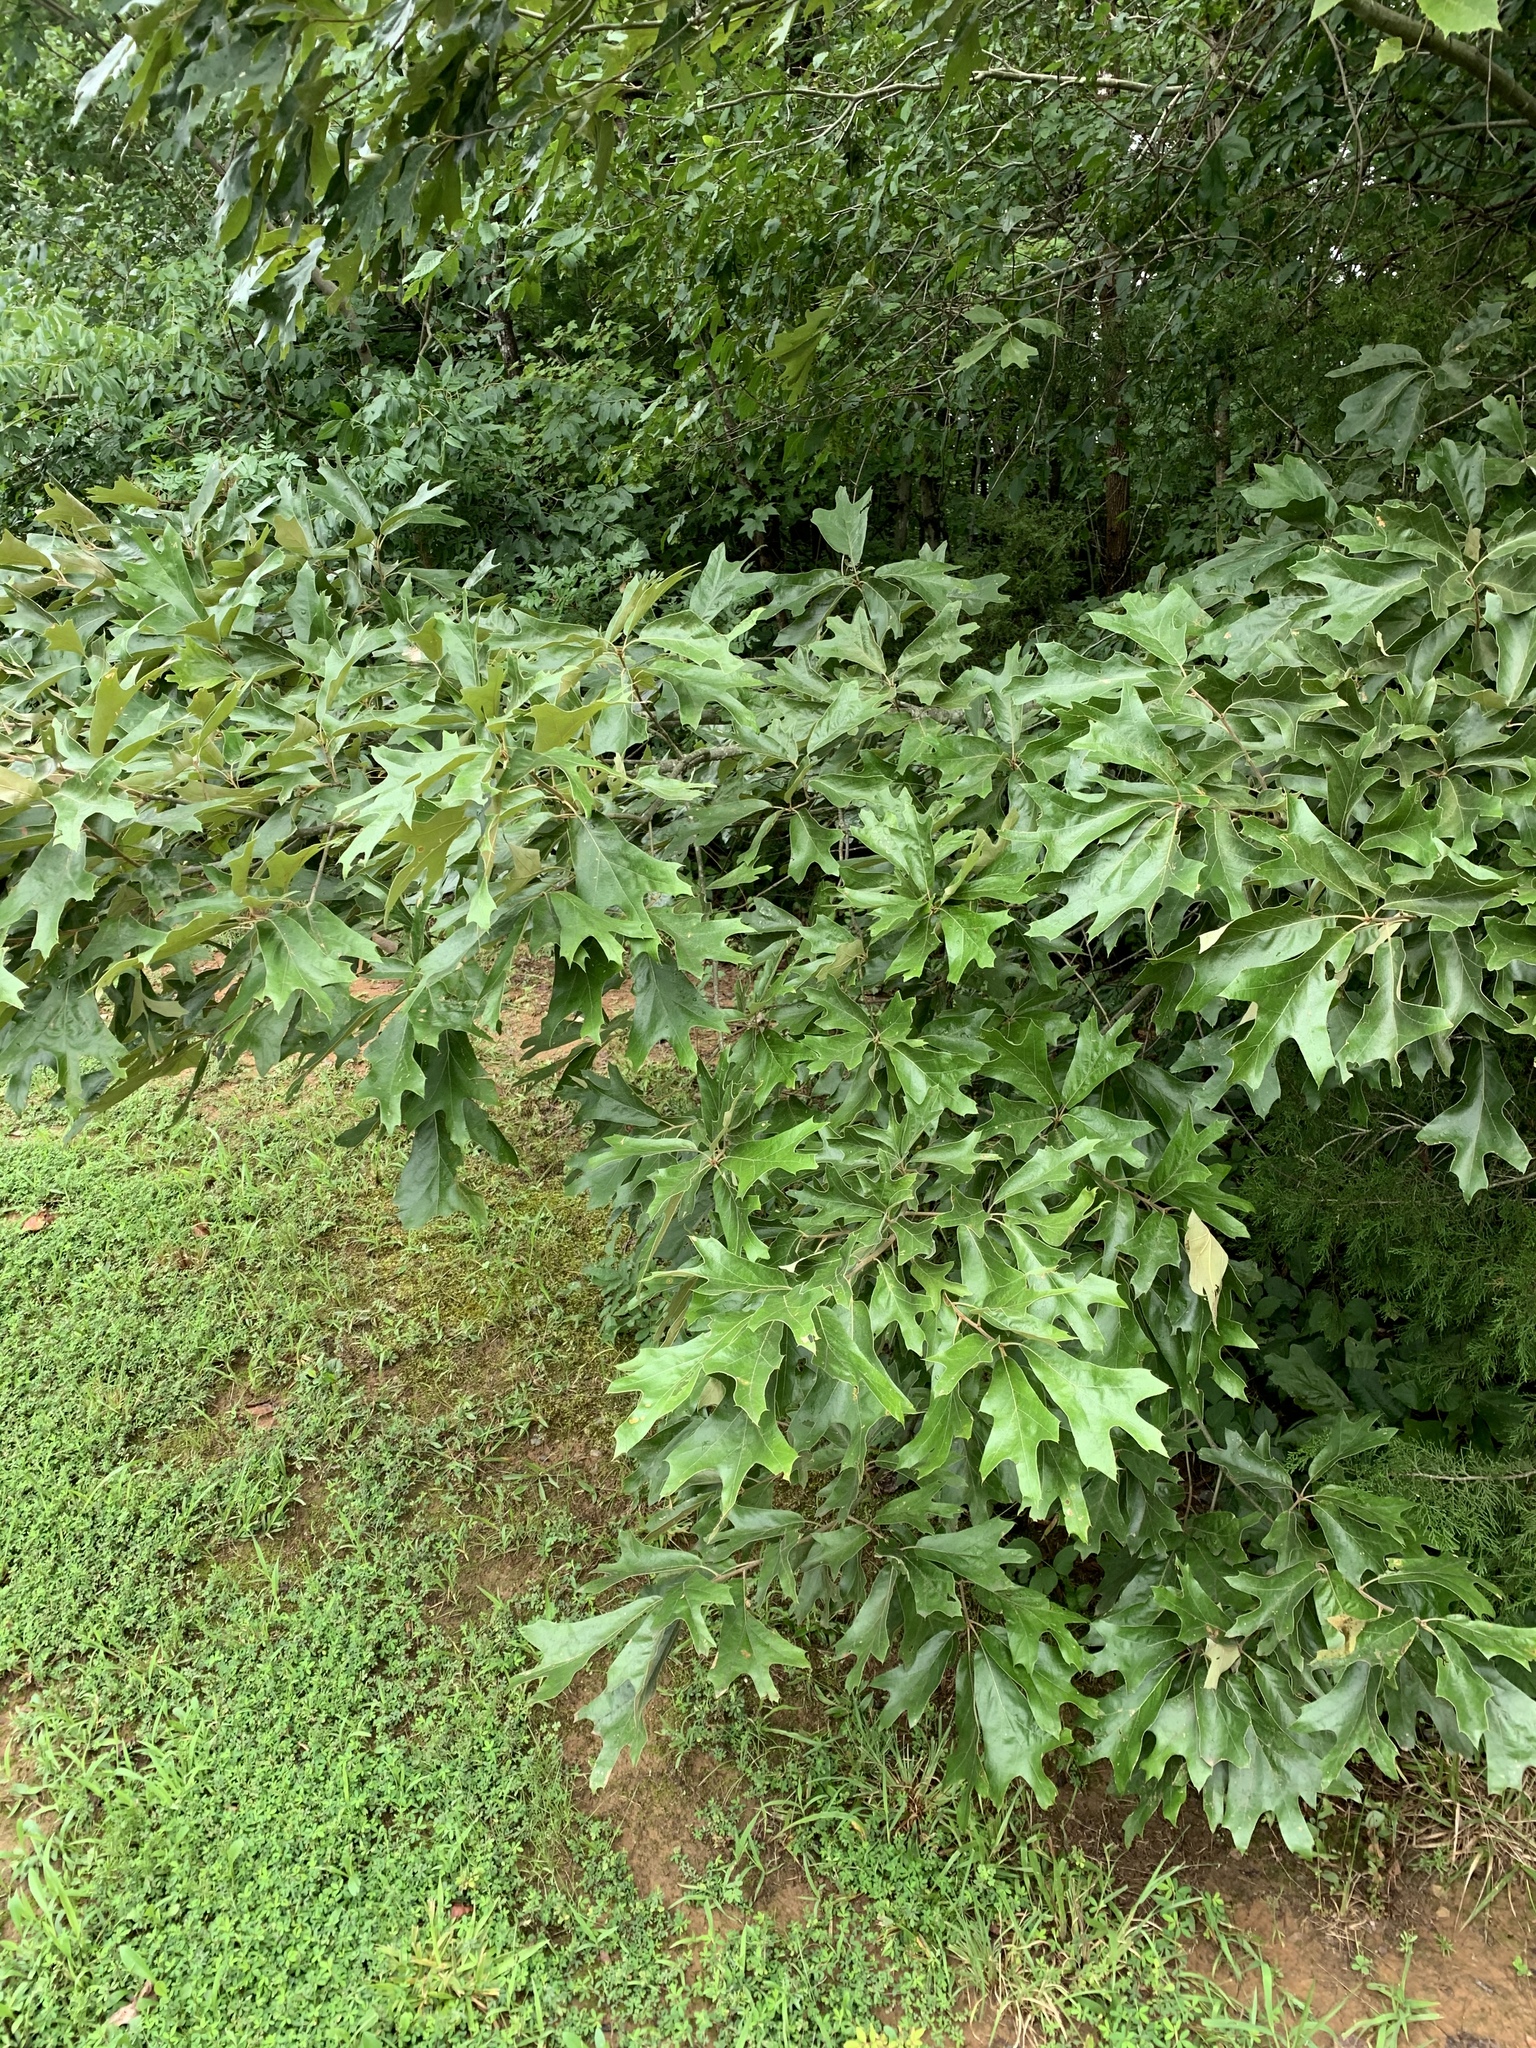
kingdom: Plantae
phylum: Tracheophyta
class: Magnoliopsida
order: Fagales
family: Fagaceae
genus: Quercus
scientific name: Quercus falcata
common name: Southern red oak
